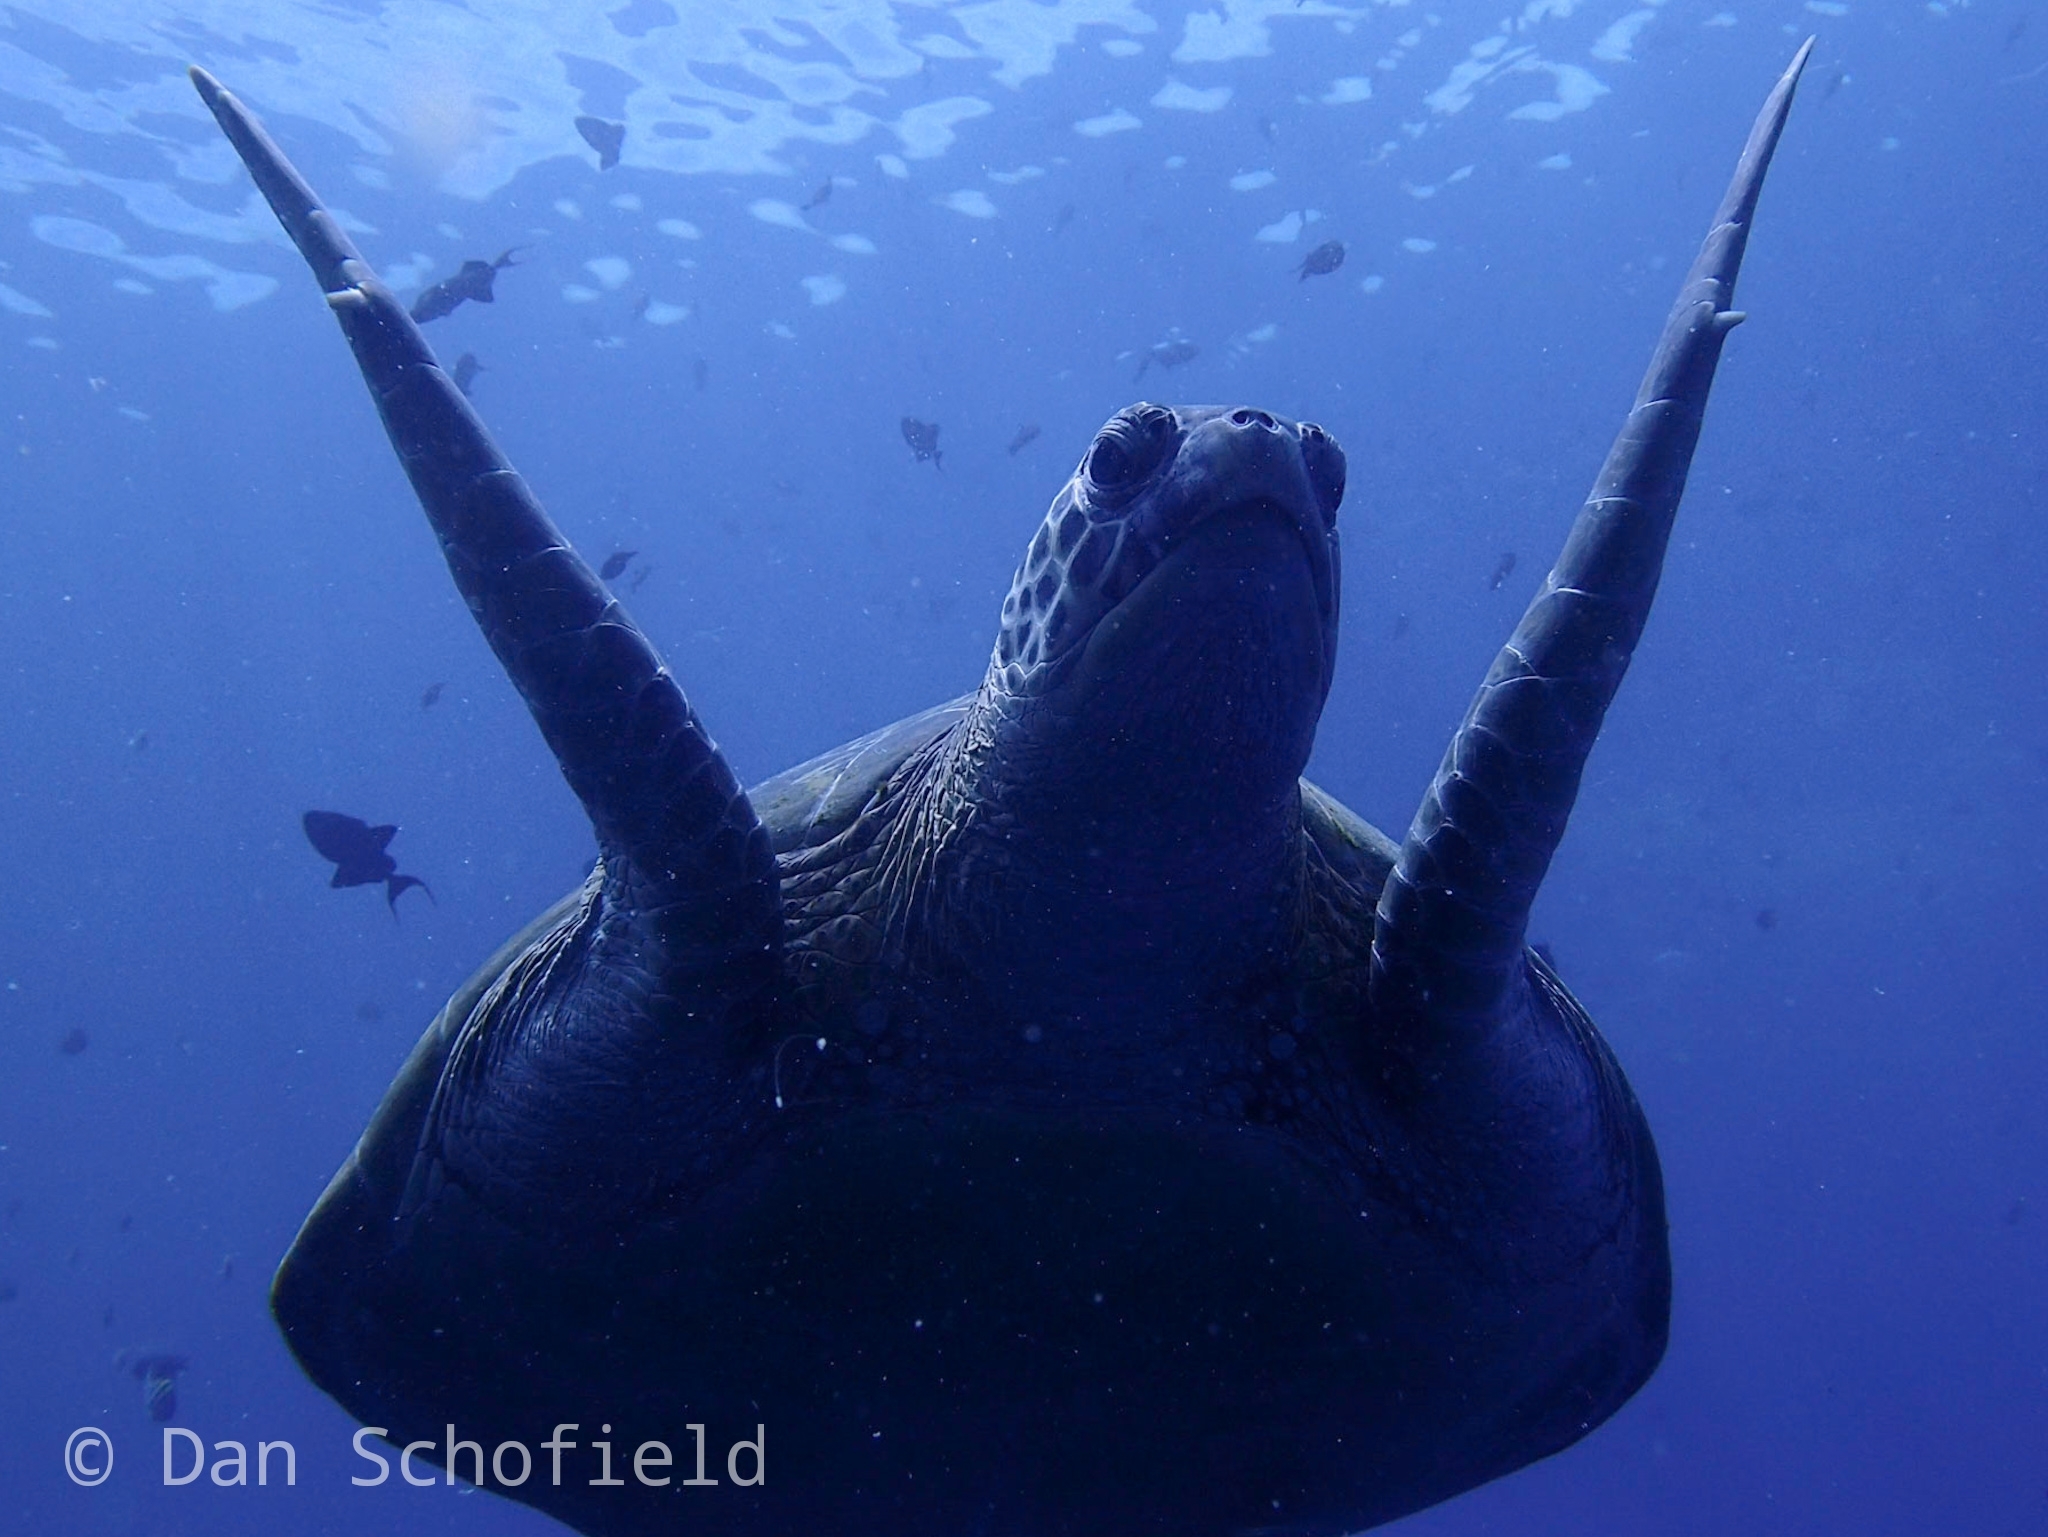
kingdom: Animalia
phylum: Chordata
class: Testudines
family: Cheloniidae
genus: Chelonia
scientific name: Chelonia mydas
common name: Green turtle
